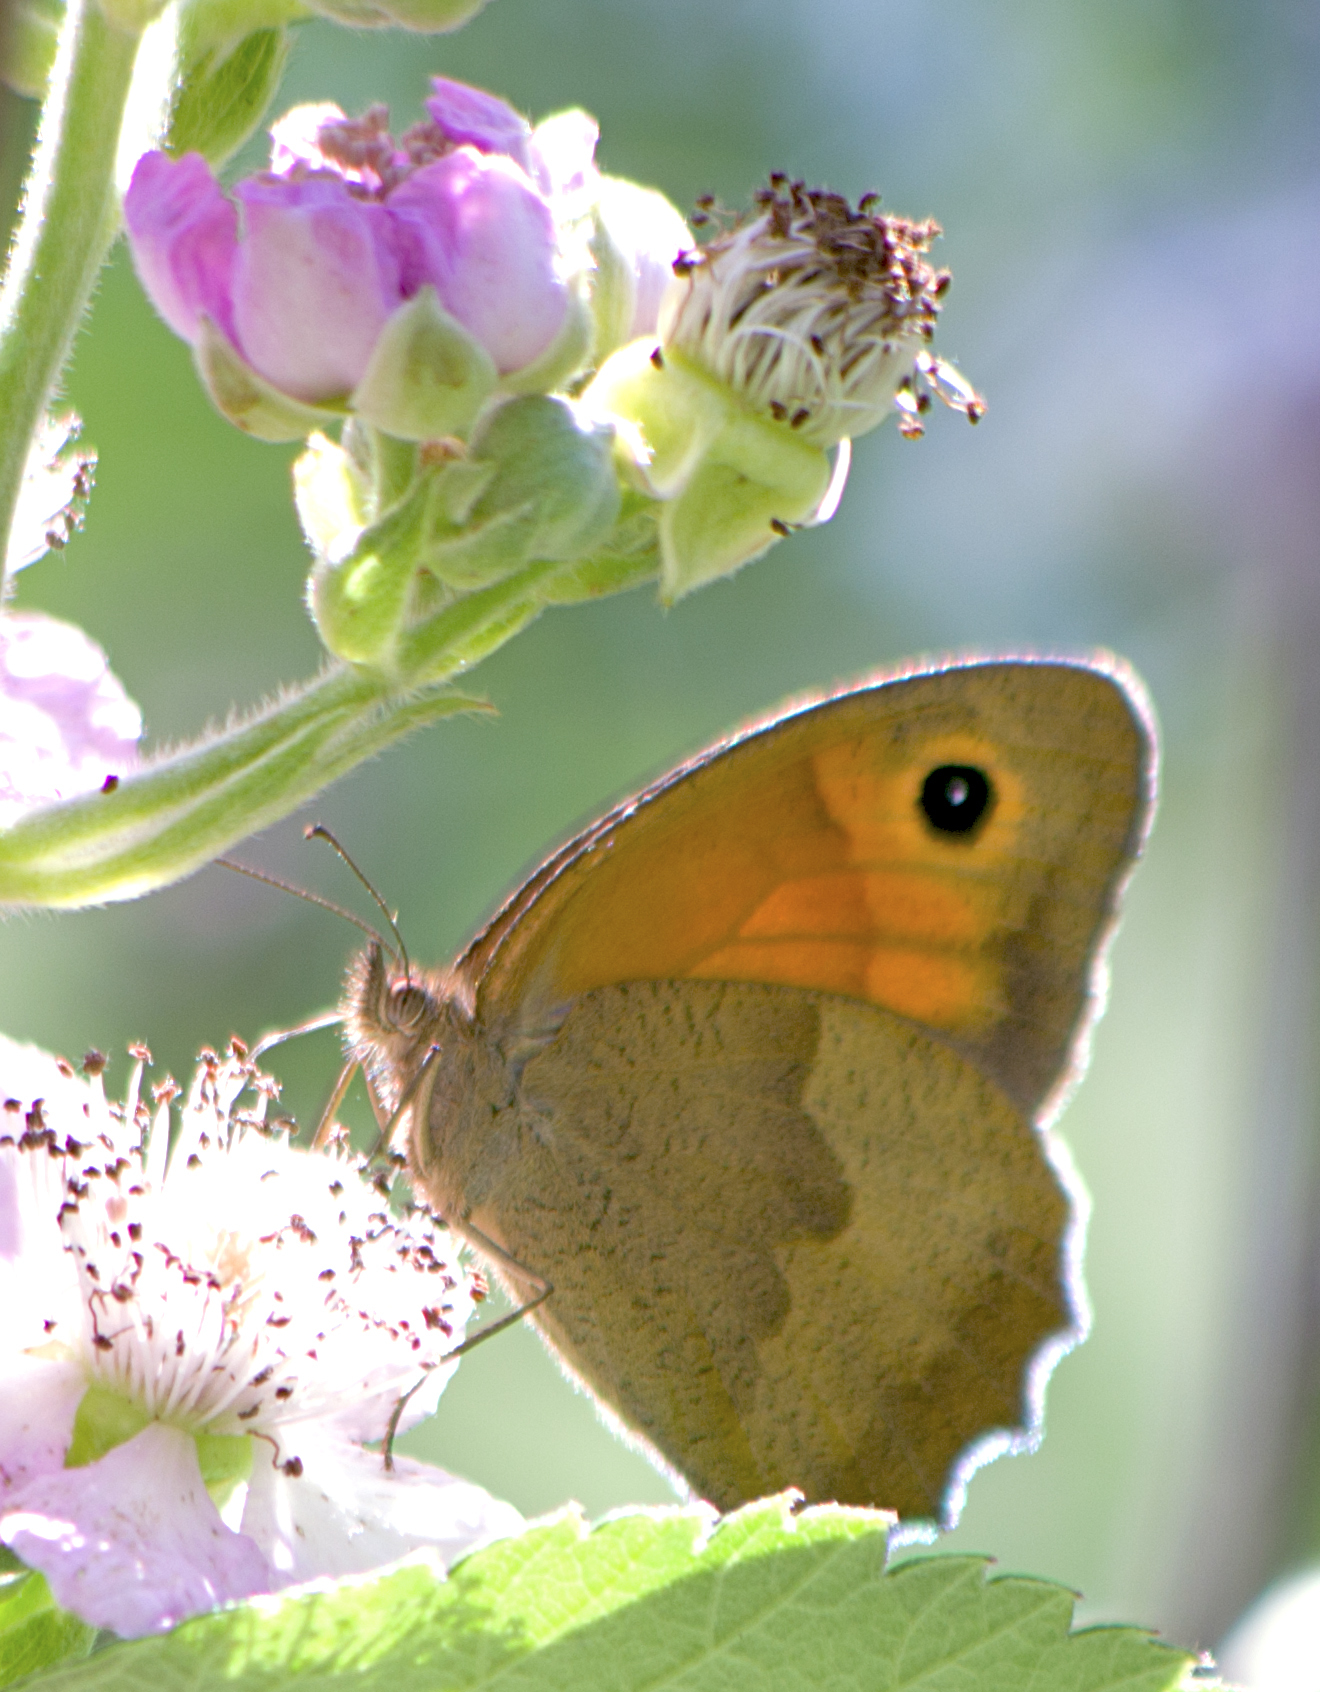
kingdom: Animalia
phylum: Arthropoda
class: Insecta
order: Lepidoptera
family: Nymphalidae
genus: Maniola
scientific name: Maniola jurtina
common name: Meadow brown
